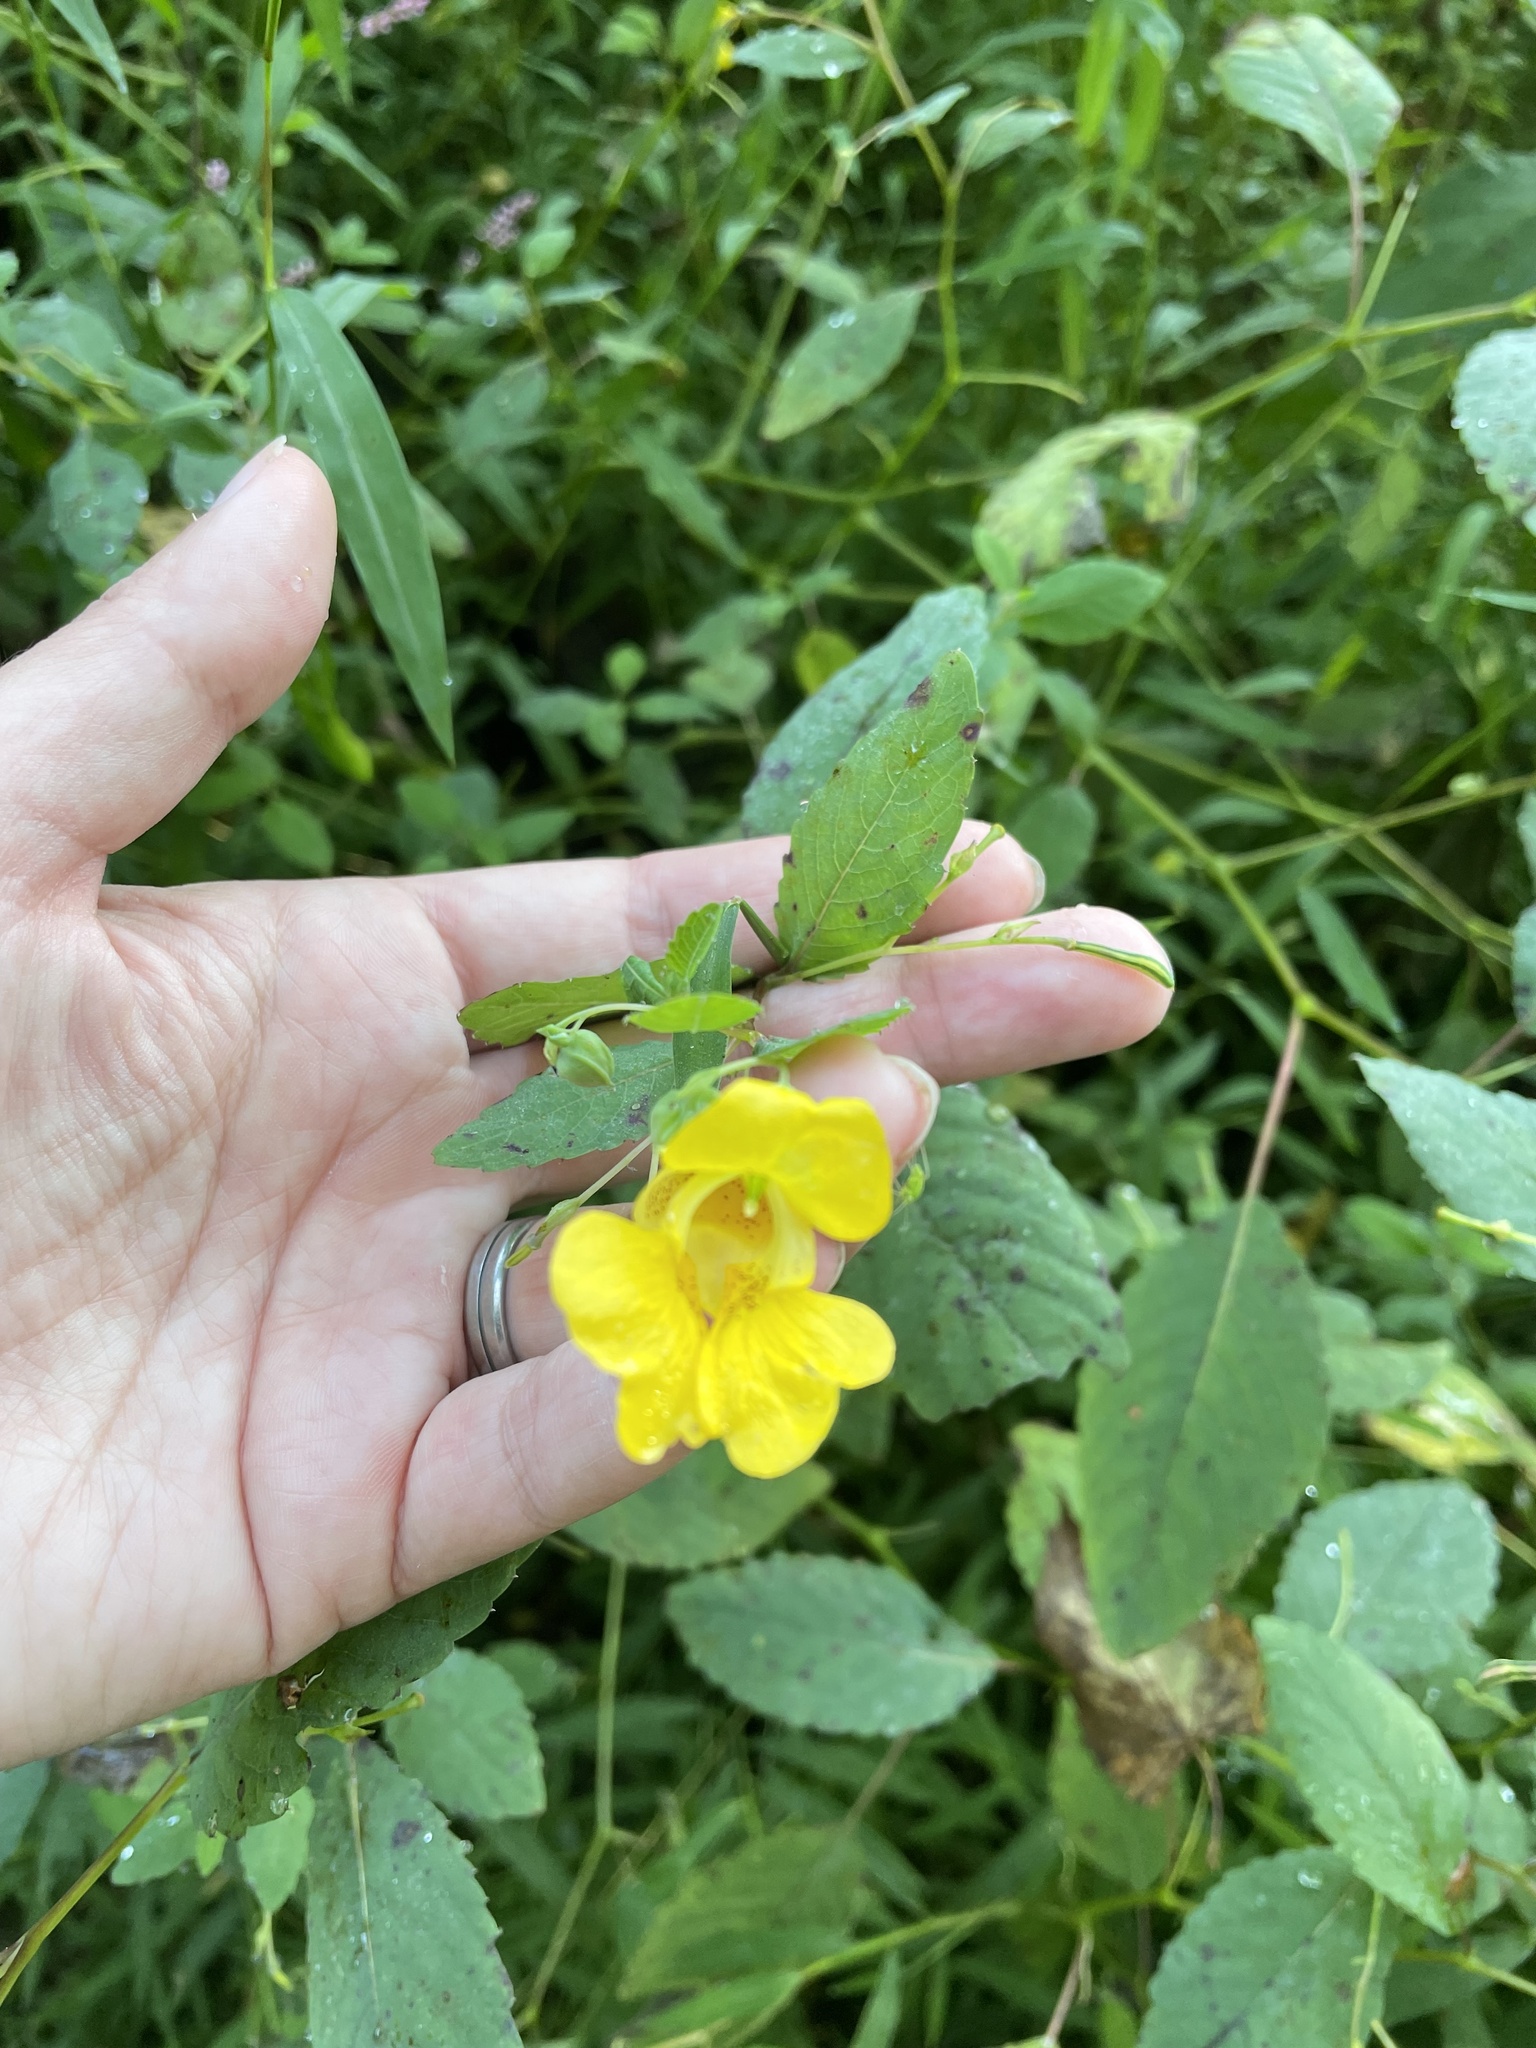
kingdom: Plantae
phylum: Tracheophyta
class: Magnoliopsida
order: Ericales
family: Balsaminaceae
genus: Impatiens
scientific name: Impatiens pallida
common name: Pale snapweed
